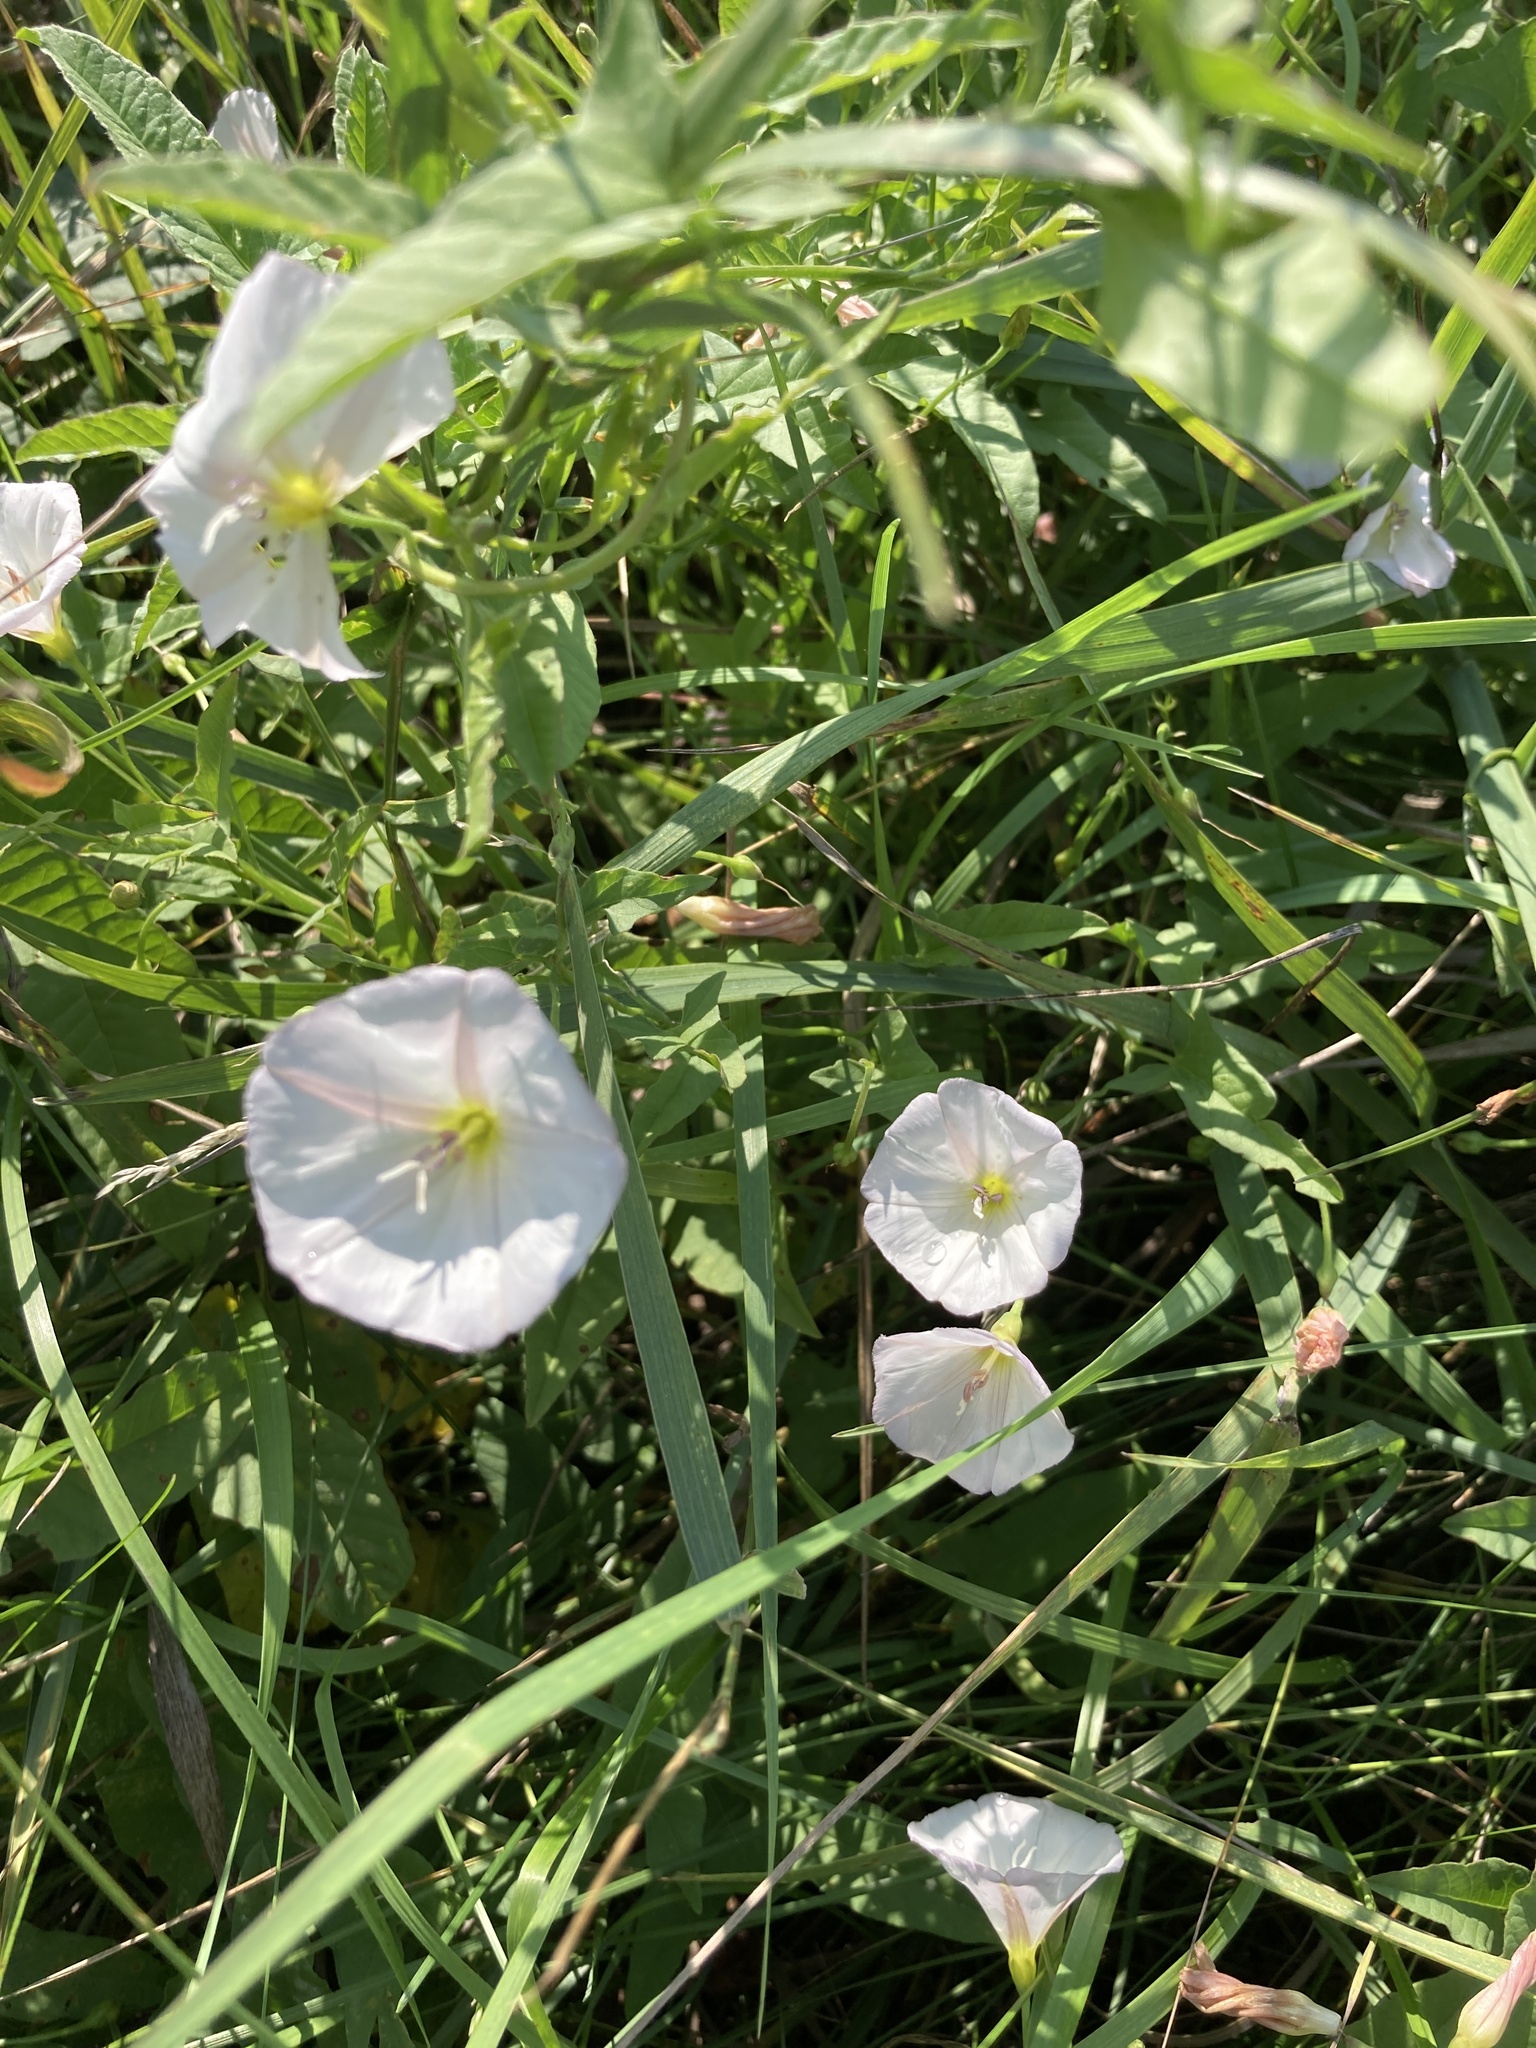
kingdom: Plantae
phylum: Tracheophyta
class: Magnoliopsida
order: Solanales
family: Convolvulaceae
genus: Convolvulus
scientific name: Convolvulus arvensis
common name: Field bindweed
